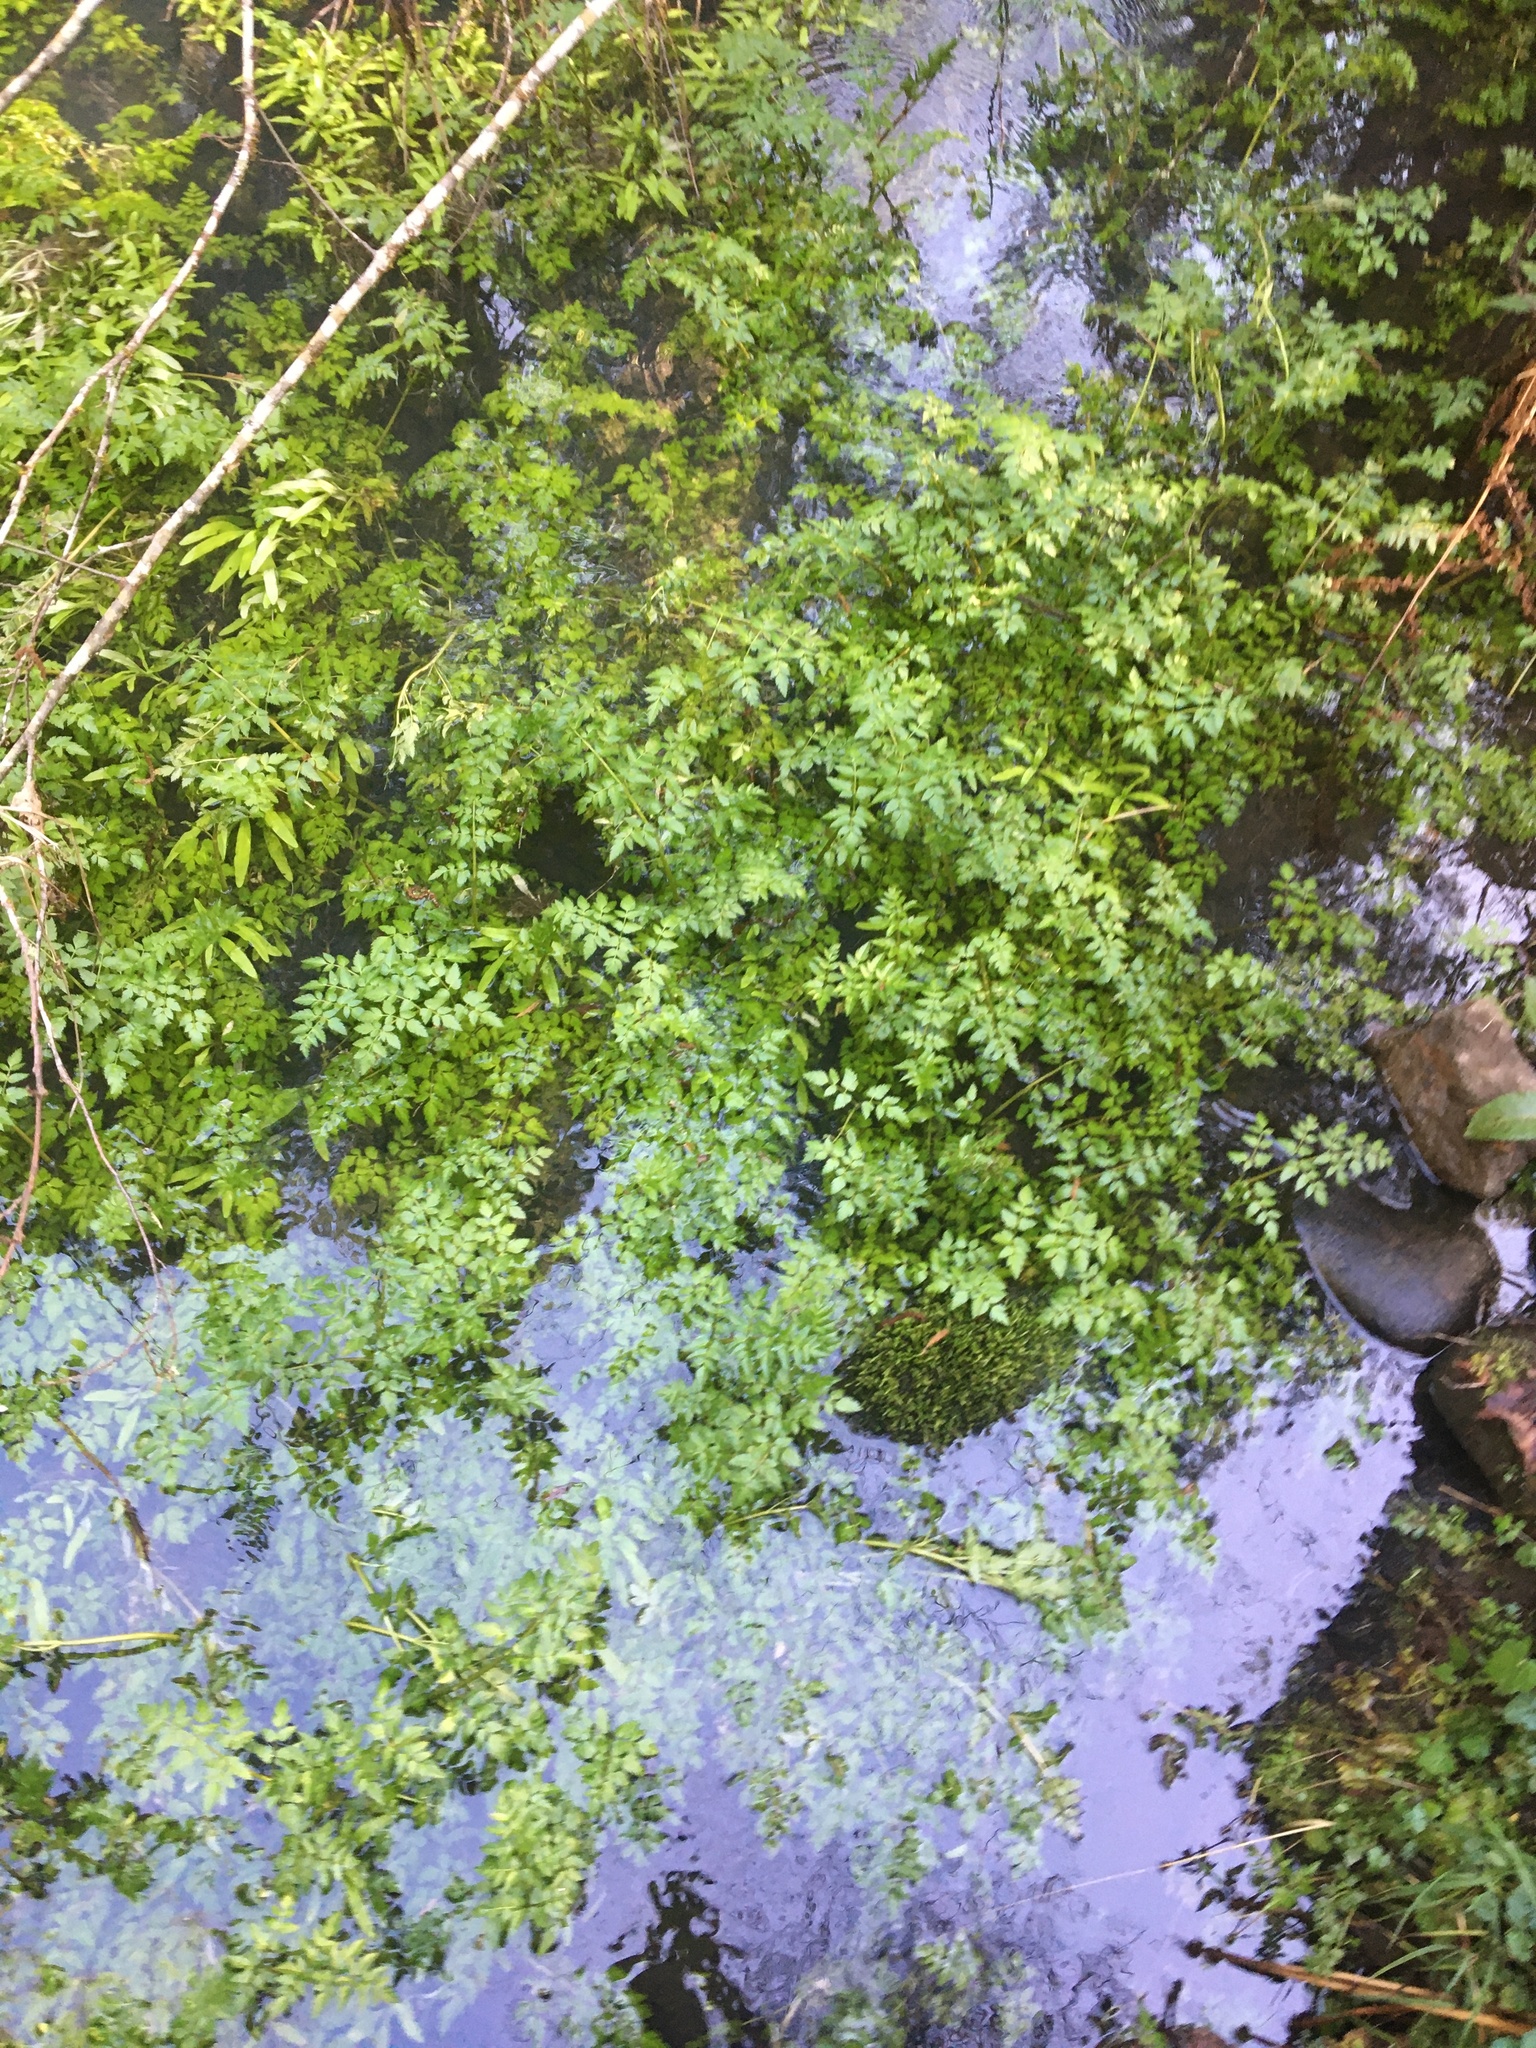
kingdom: Plantae
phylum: Tracheophyta
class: Magnoliopsida
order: Apiales
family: Apiaceae
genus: Oenanthe
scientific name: Oenanthe sarmentosa
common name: American water-parsley
